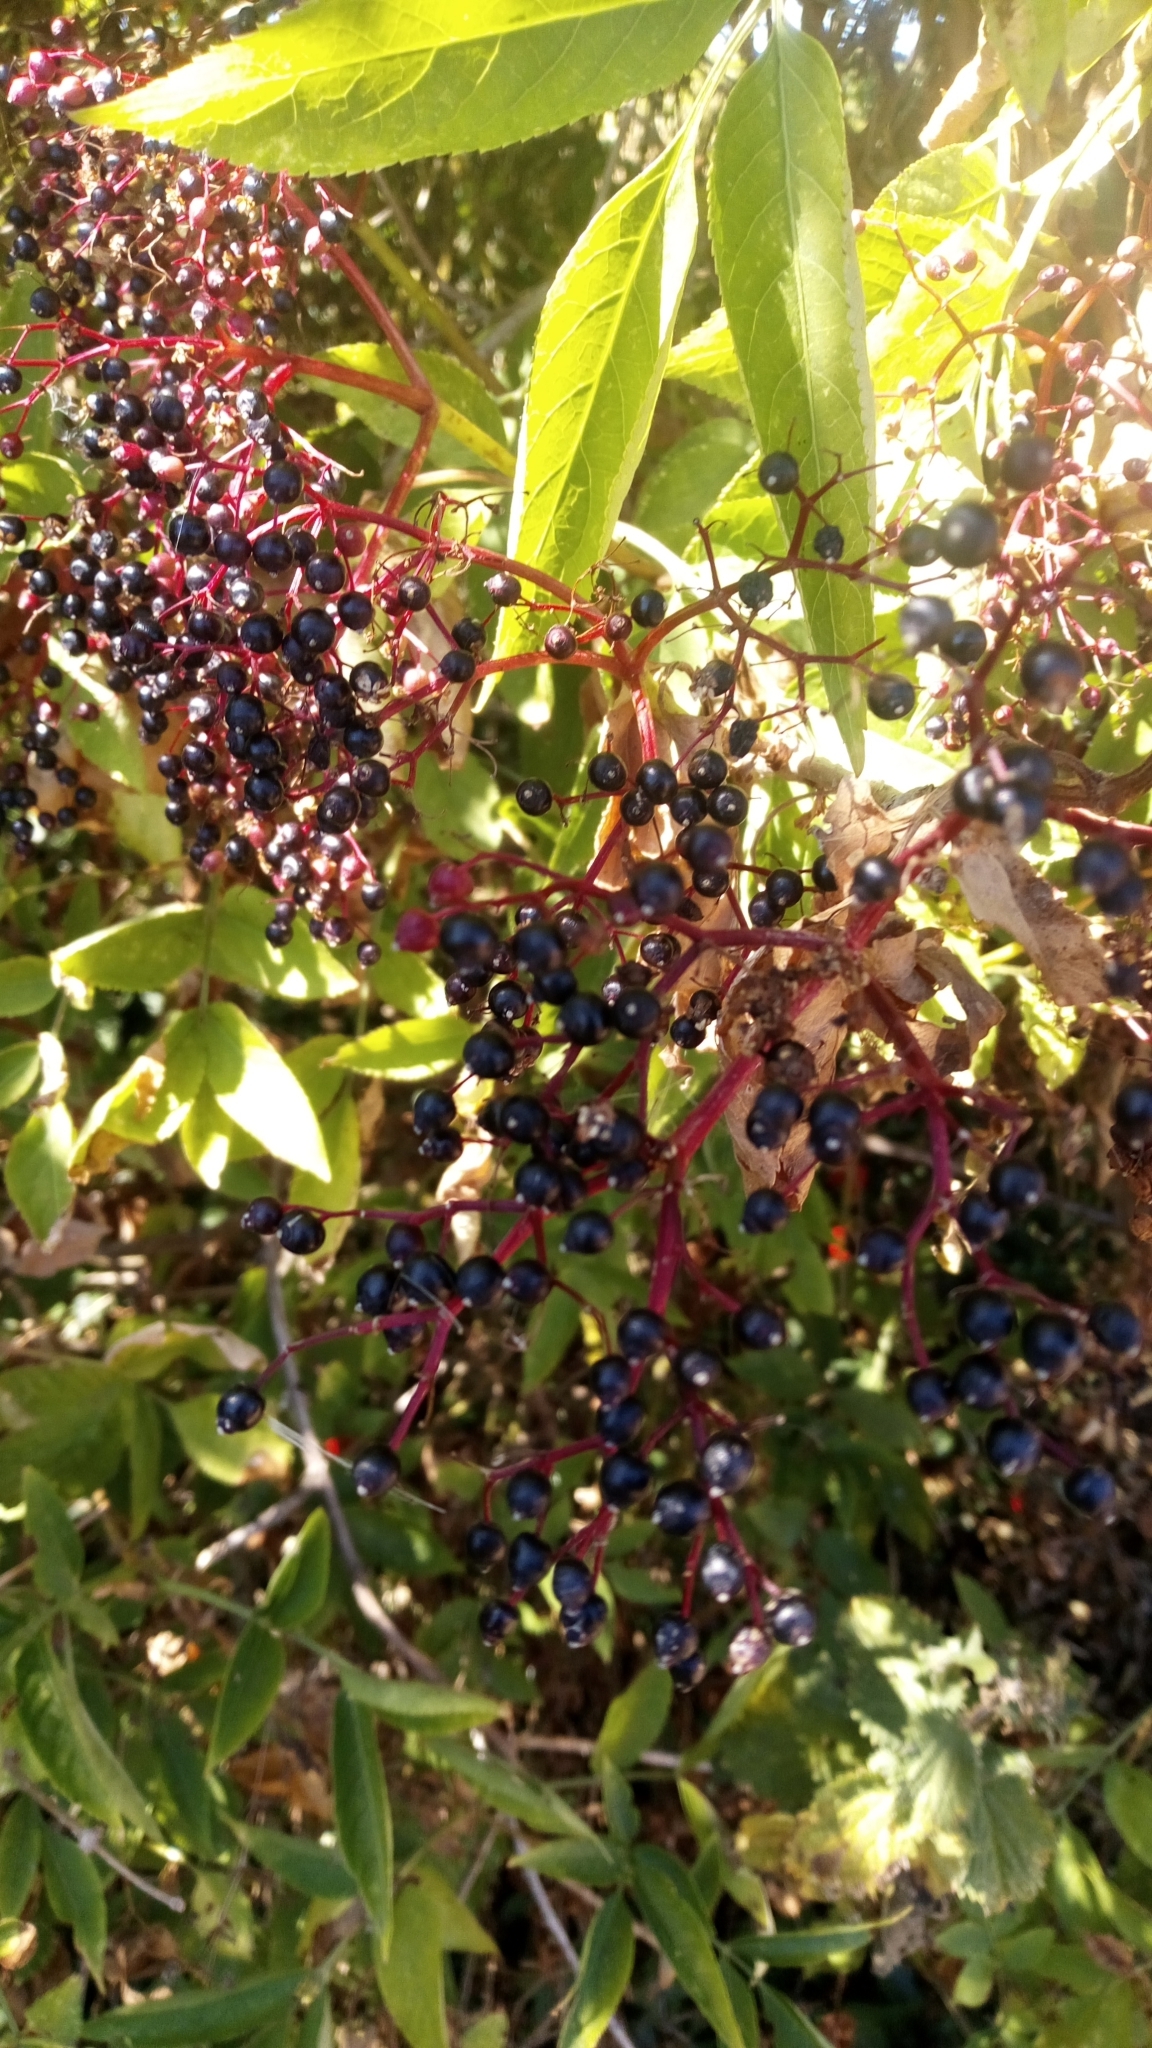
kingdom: Plantae
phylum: Tracheophyta
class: Magnoliopsida
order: Dipsacales
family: Viburnaceae
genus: Sambucus
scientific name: Sambucus nigra
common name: Elder
